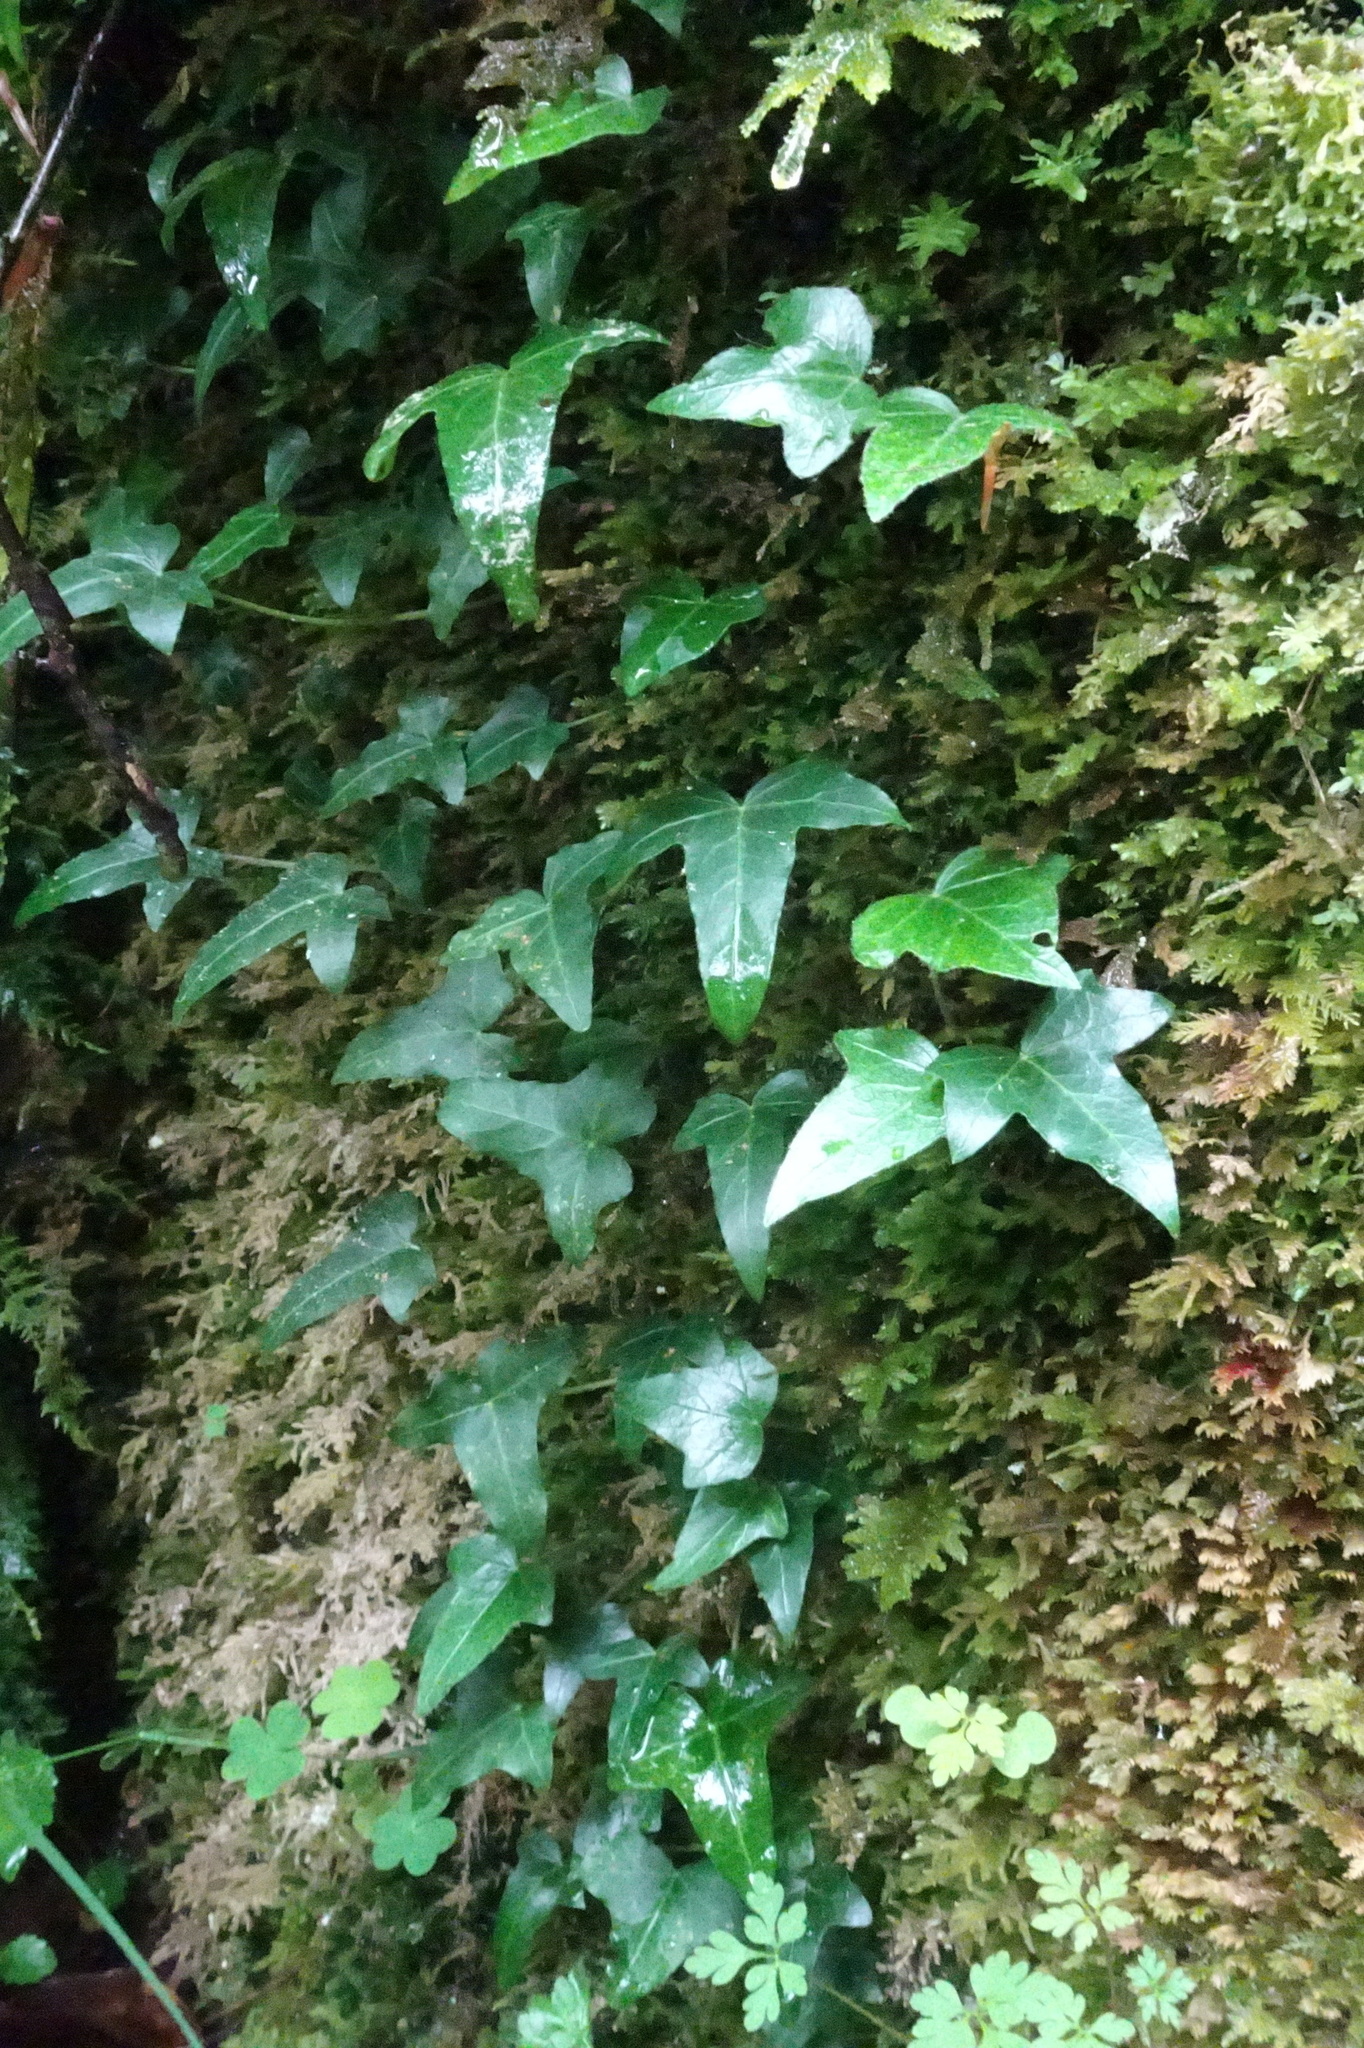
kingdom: Plantae
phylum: Tracheophyta
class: Magnoliopsida
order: Apiales
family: Araliaceae
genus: Hedera
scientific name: Hedera helix
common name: Ivy
